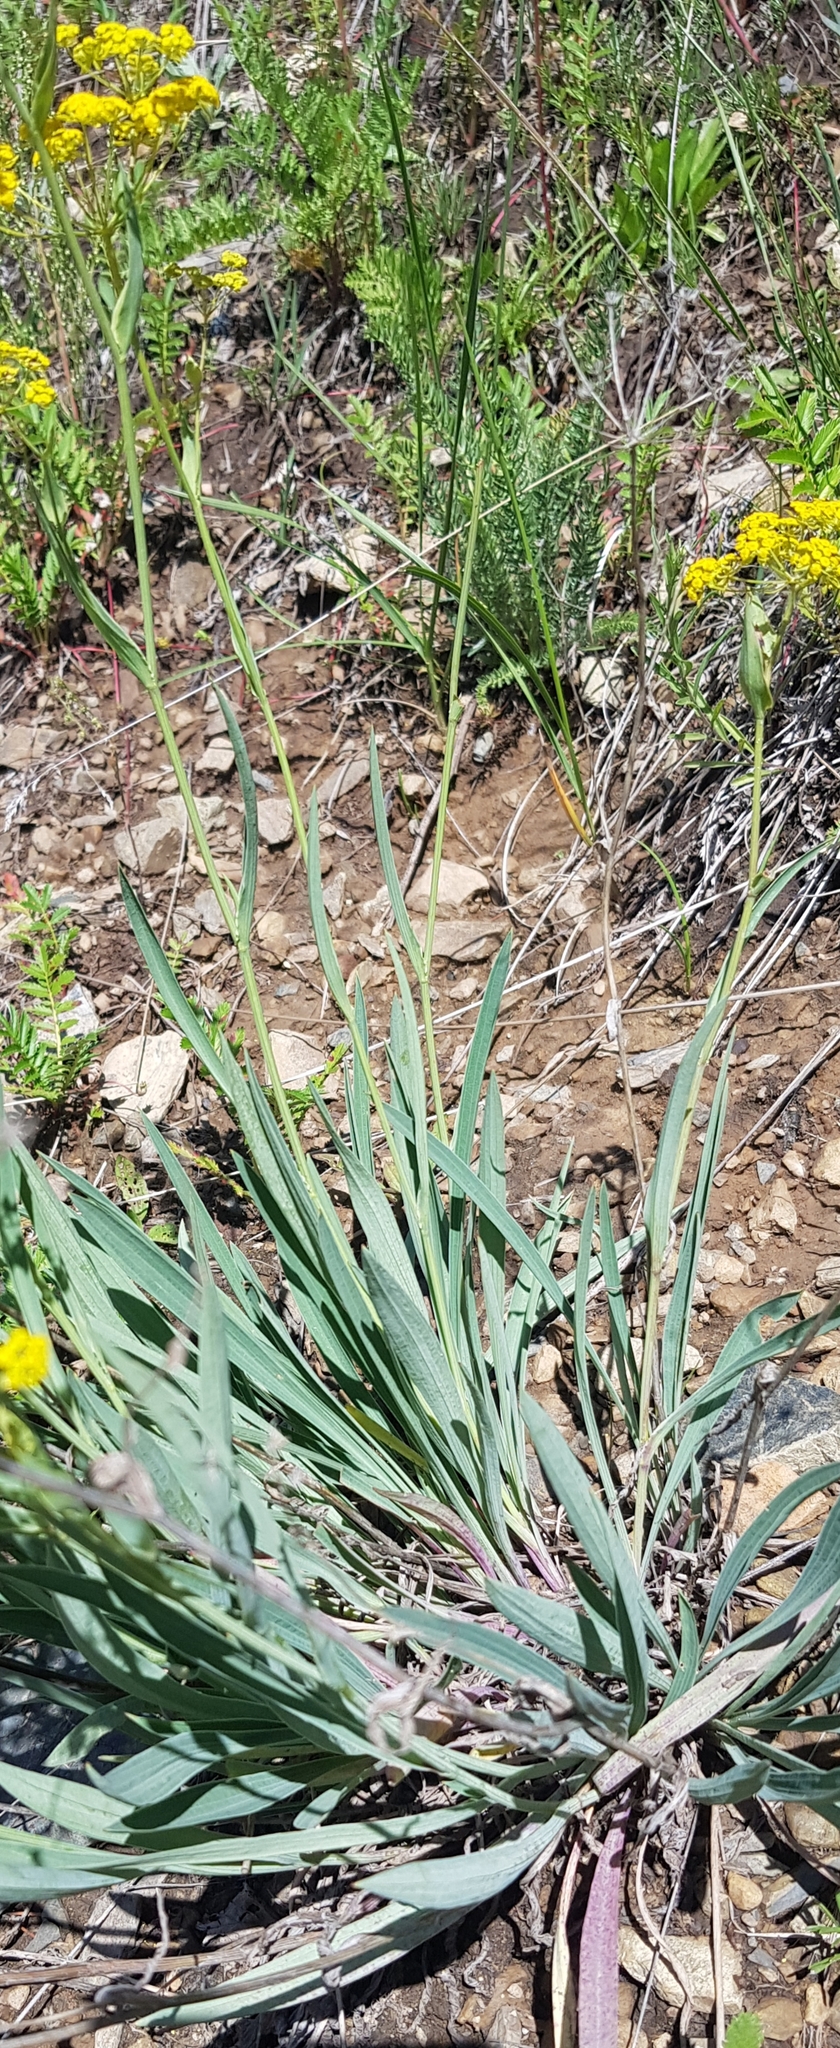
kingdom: Plantae
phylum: Tracheophyta
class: Magnoliopsida
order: Apiales
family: Apiaceae
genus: Bupleurum
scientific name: Bupleurum sibiricum
